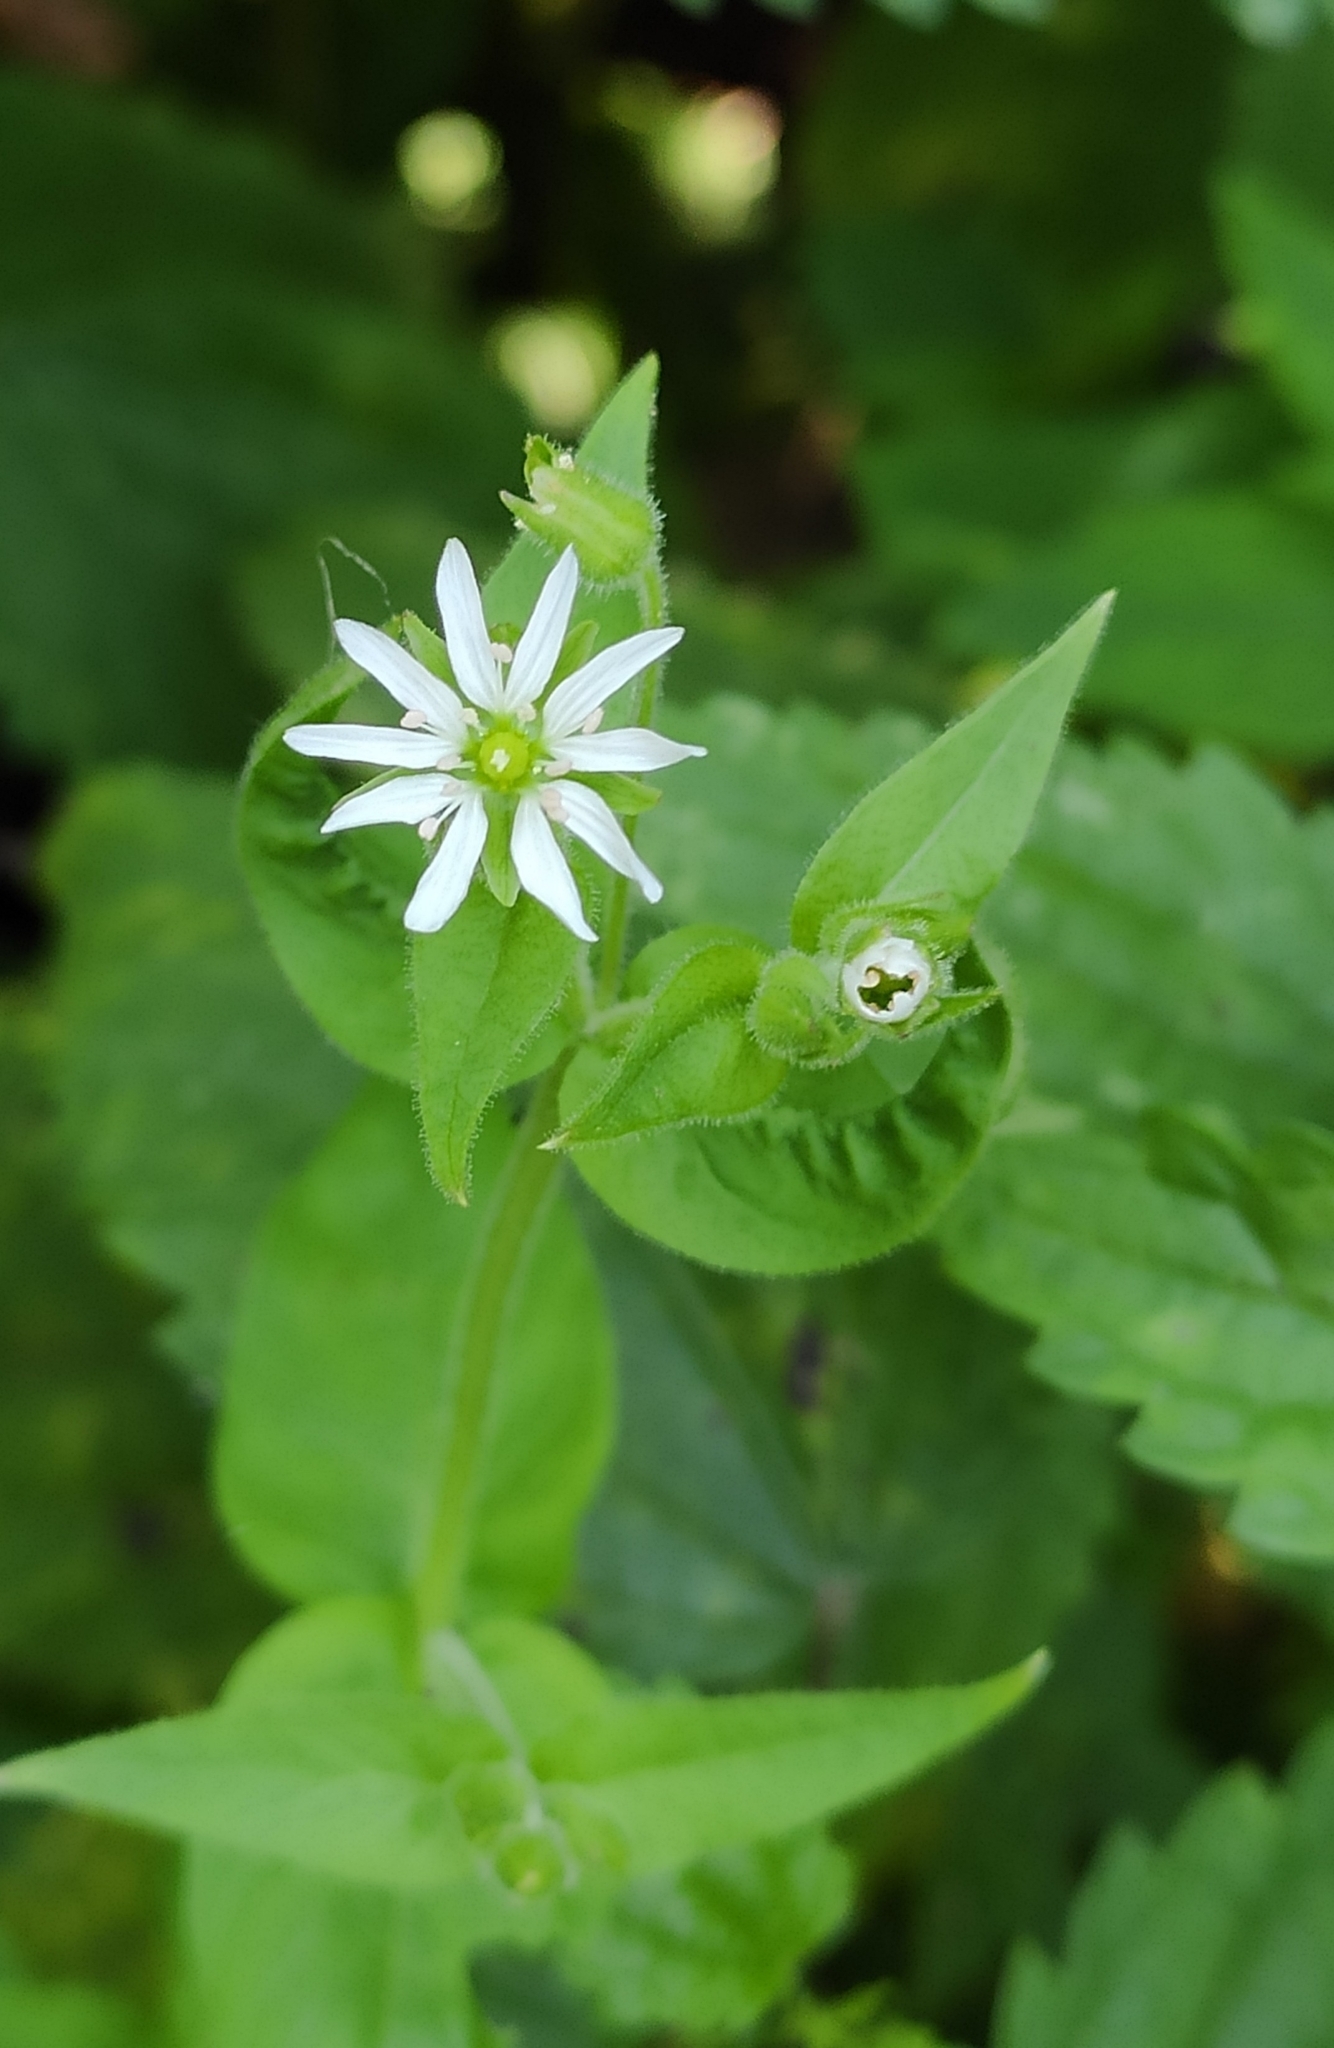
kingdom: Plantae
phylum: Tracheophyta
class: Magnoliopsida
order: Caryophyllales
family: Caryophyllaceae
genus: Stellaria
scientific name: Stellaria aquatica
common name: Water chickweed
